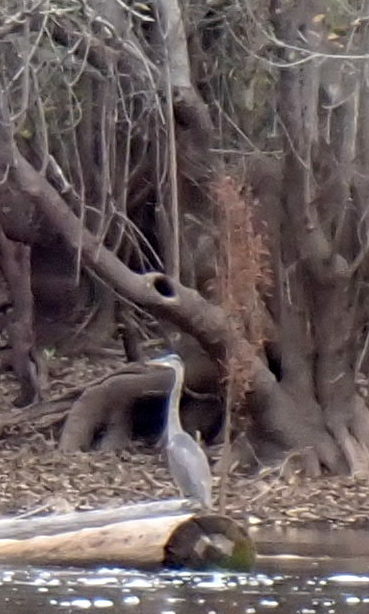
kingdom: Animalia
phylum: Chordata
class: Aves
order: Pelecaniformes
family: Ardeidae
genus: Ardea
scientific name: Ardea herodias
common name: Great blue heron
